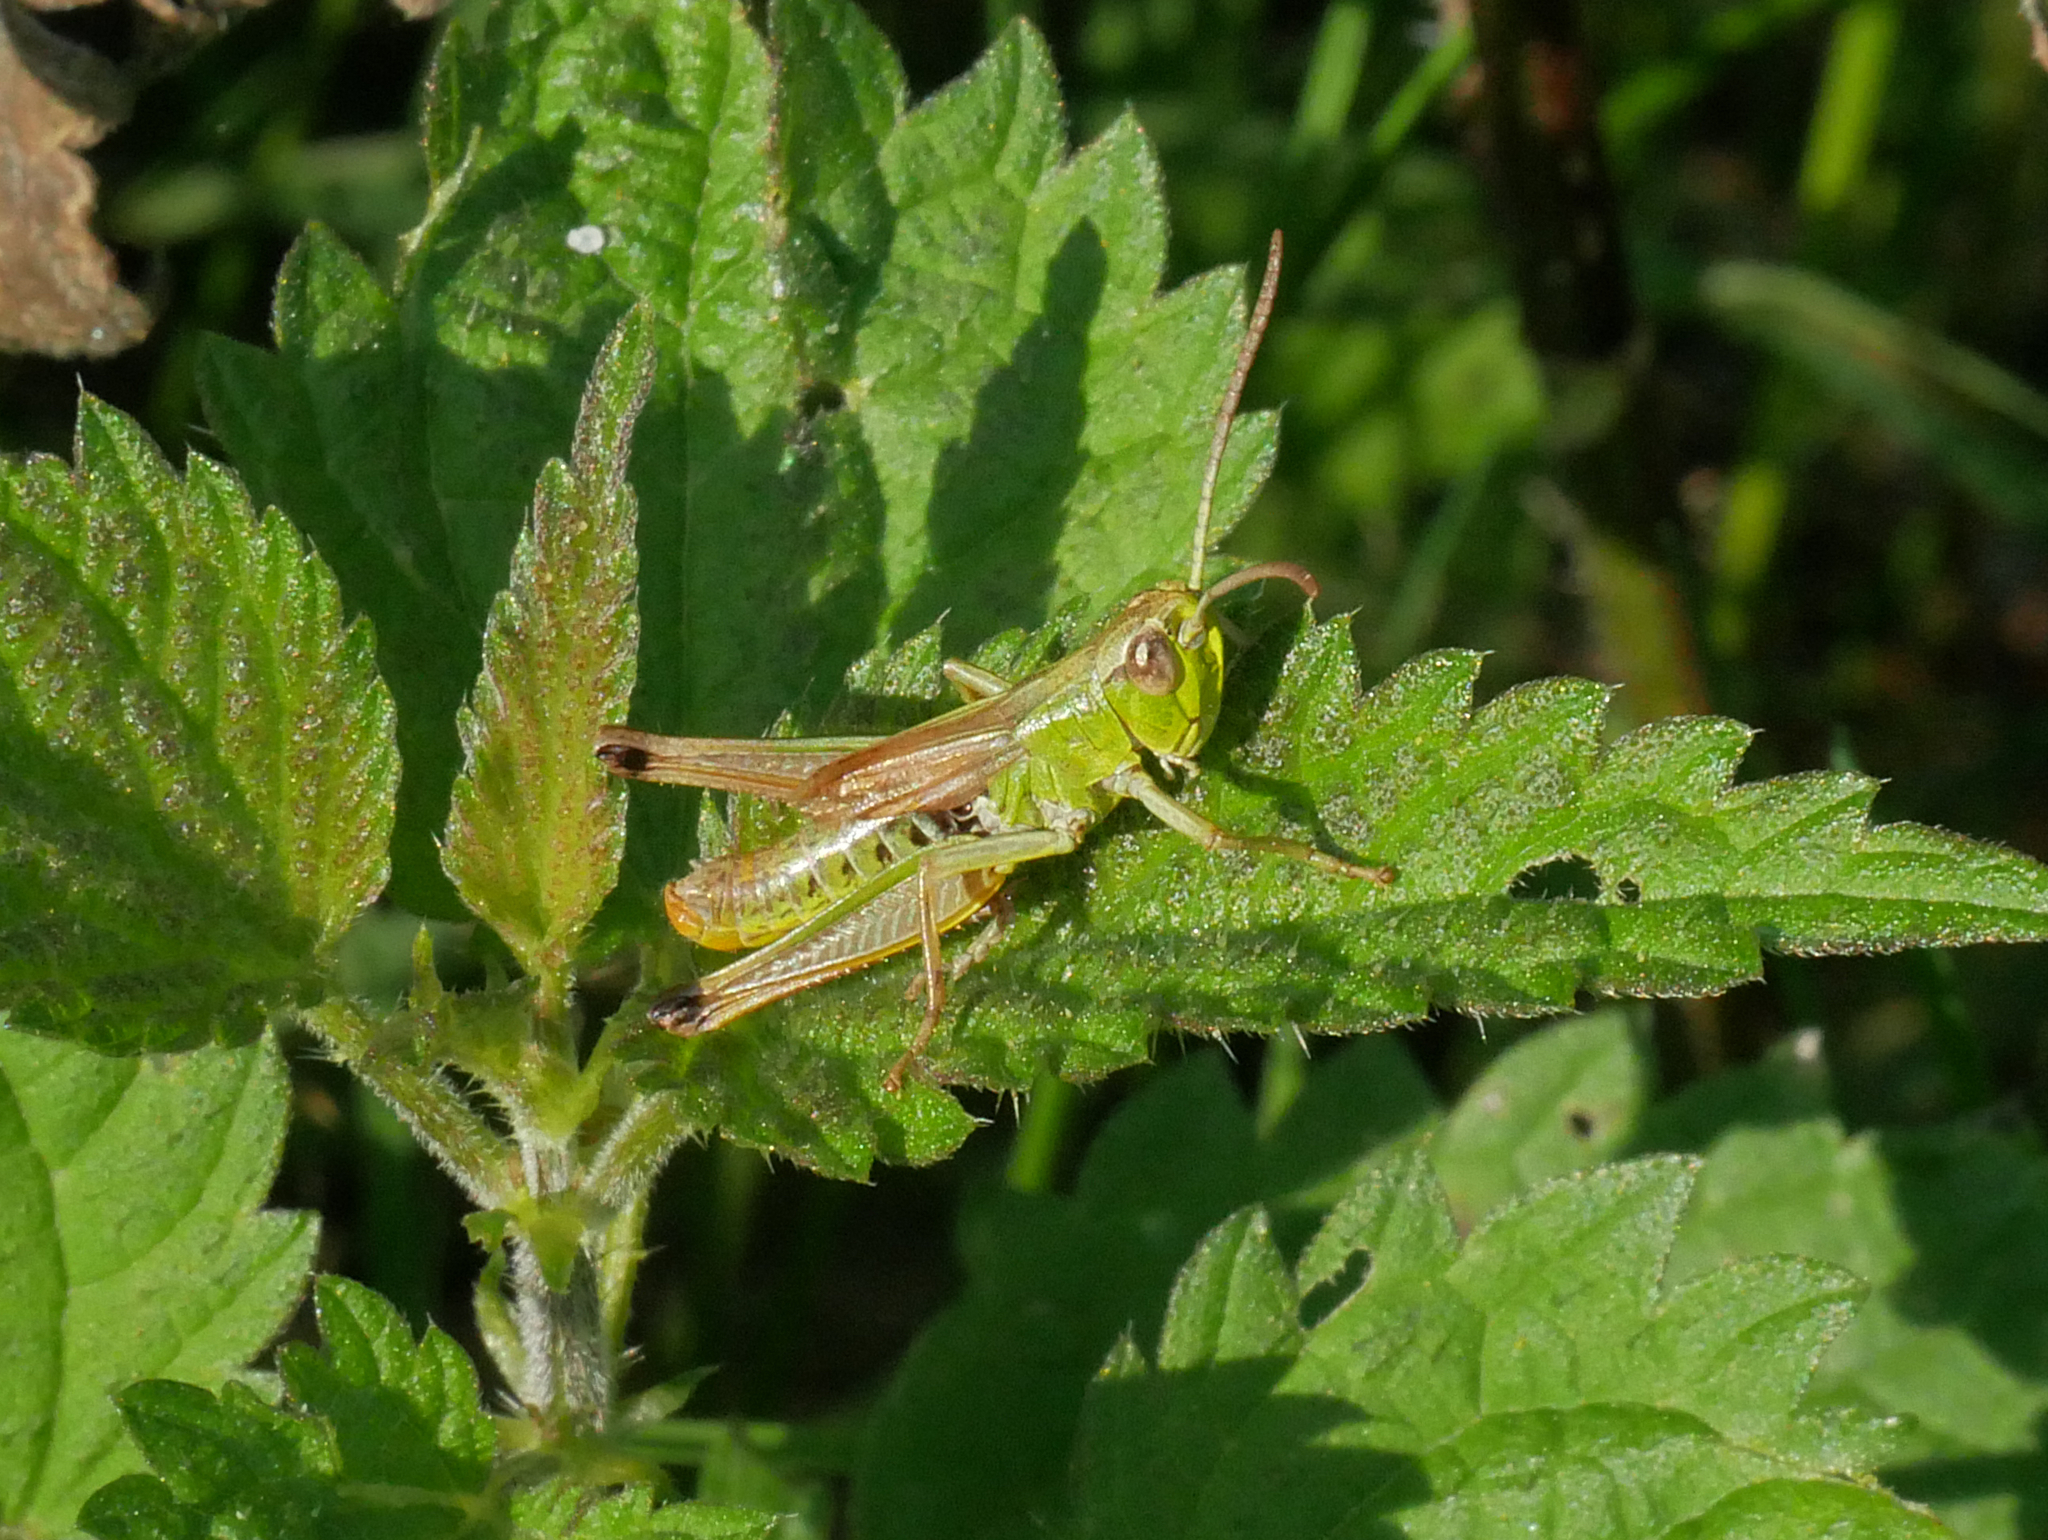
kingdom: Animalia
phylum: Arthropoda
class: Insecta
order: Orthoptera
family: Acrididae
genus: Pseudochorthippus
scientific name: Pseudochorthippus parallelus
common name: Meadow grasshopper
